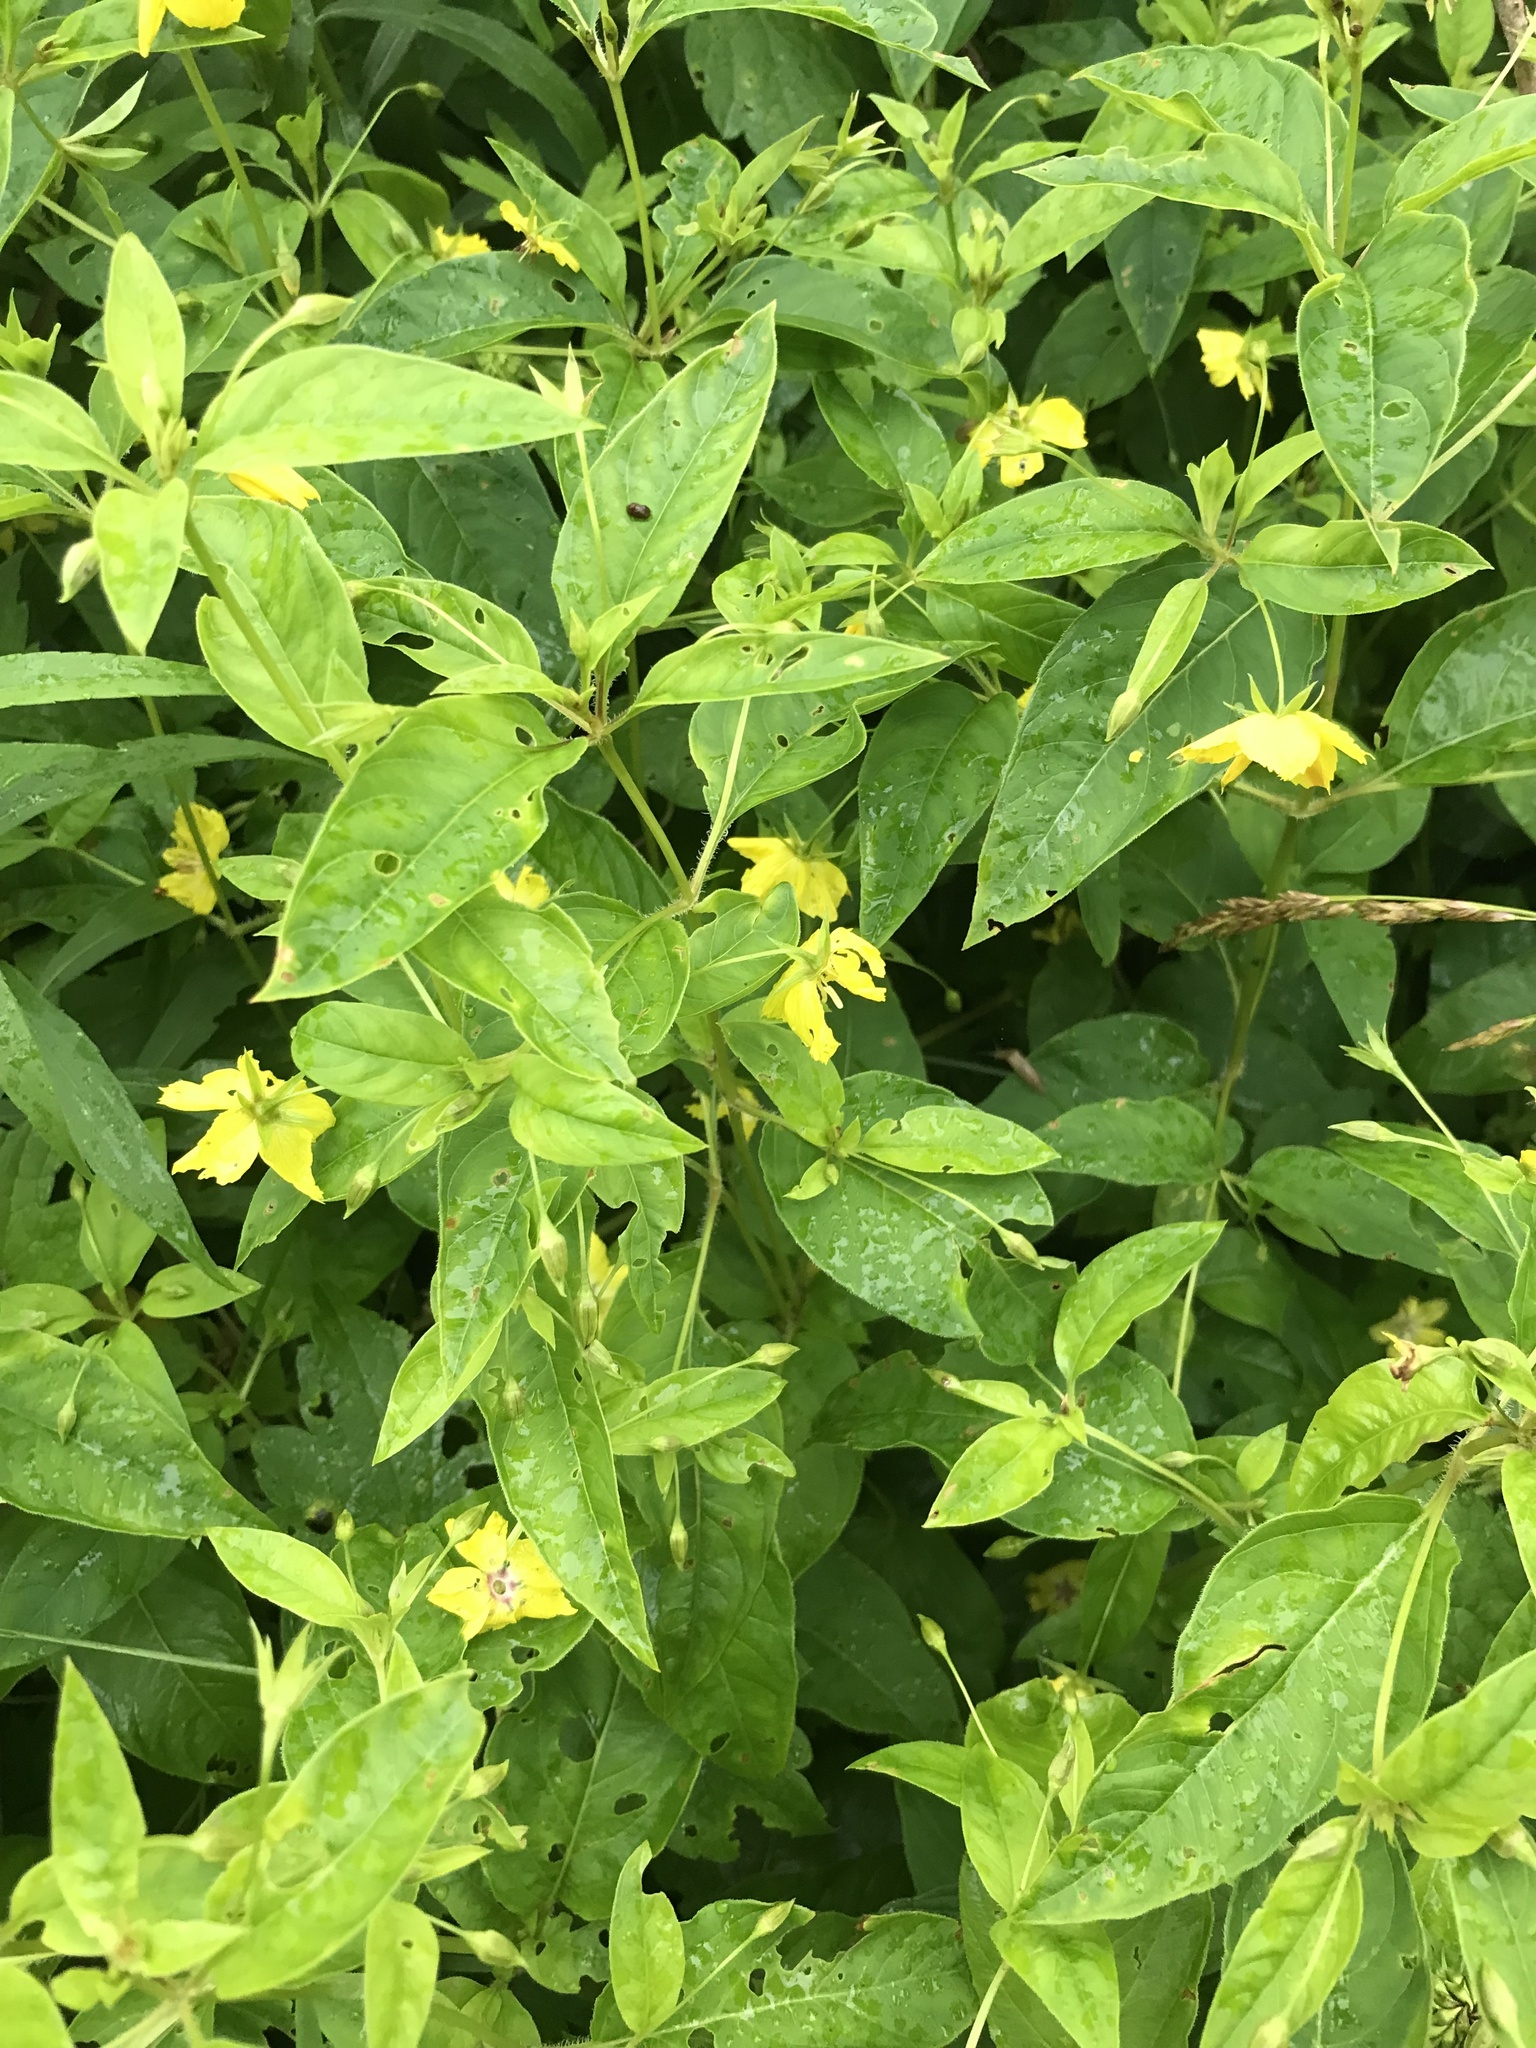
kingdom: Plantae
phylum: Tracheophyta
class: Magnoliopsida
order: Ericales
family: Primulaceae
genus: Lysimachia
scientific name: Lysimachia ciliata
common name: Fringed loosestrife
